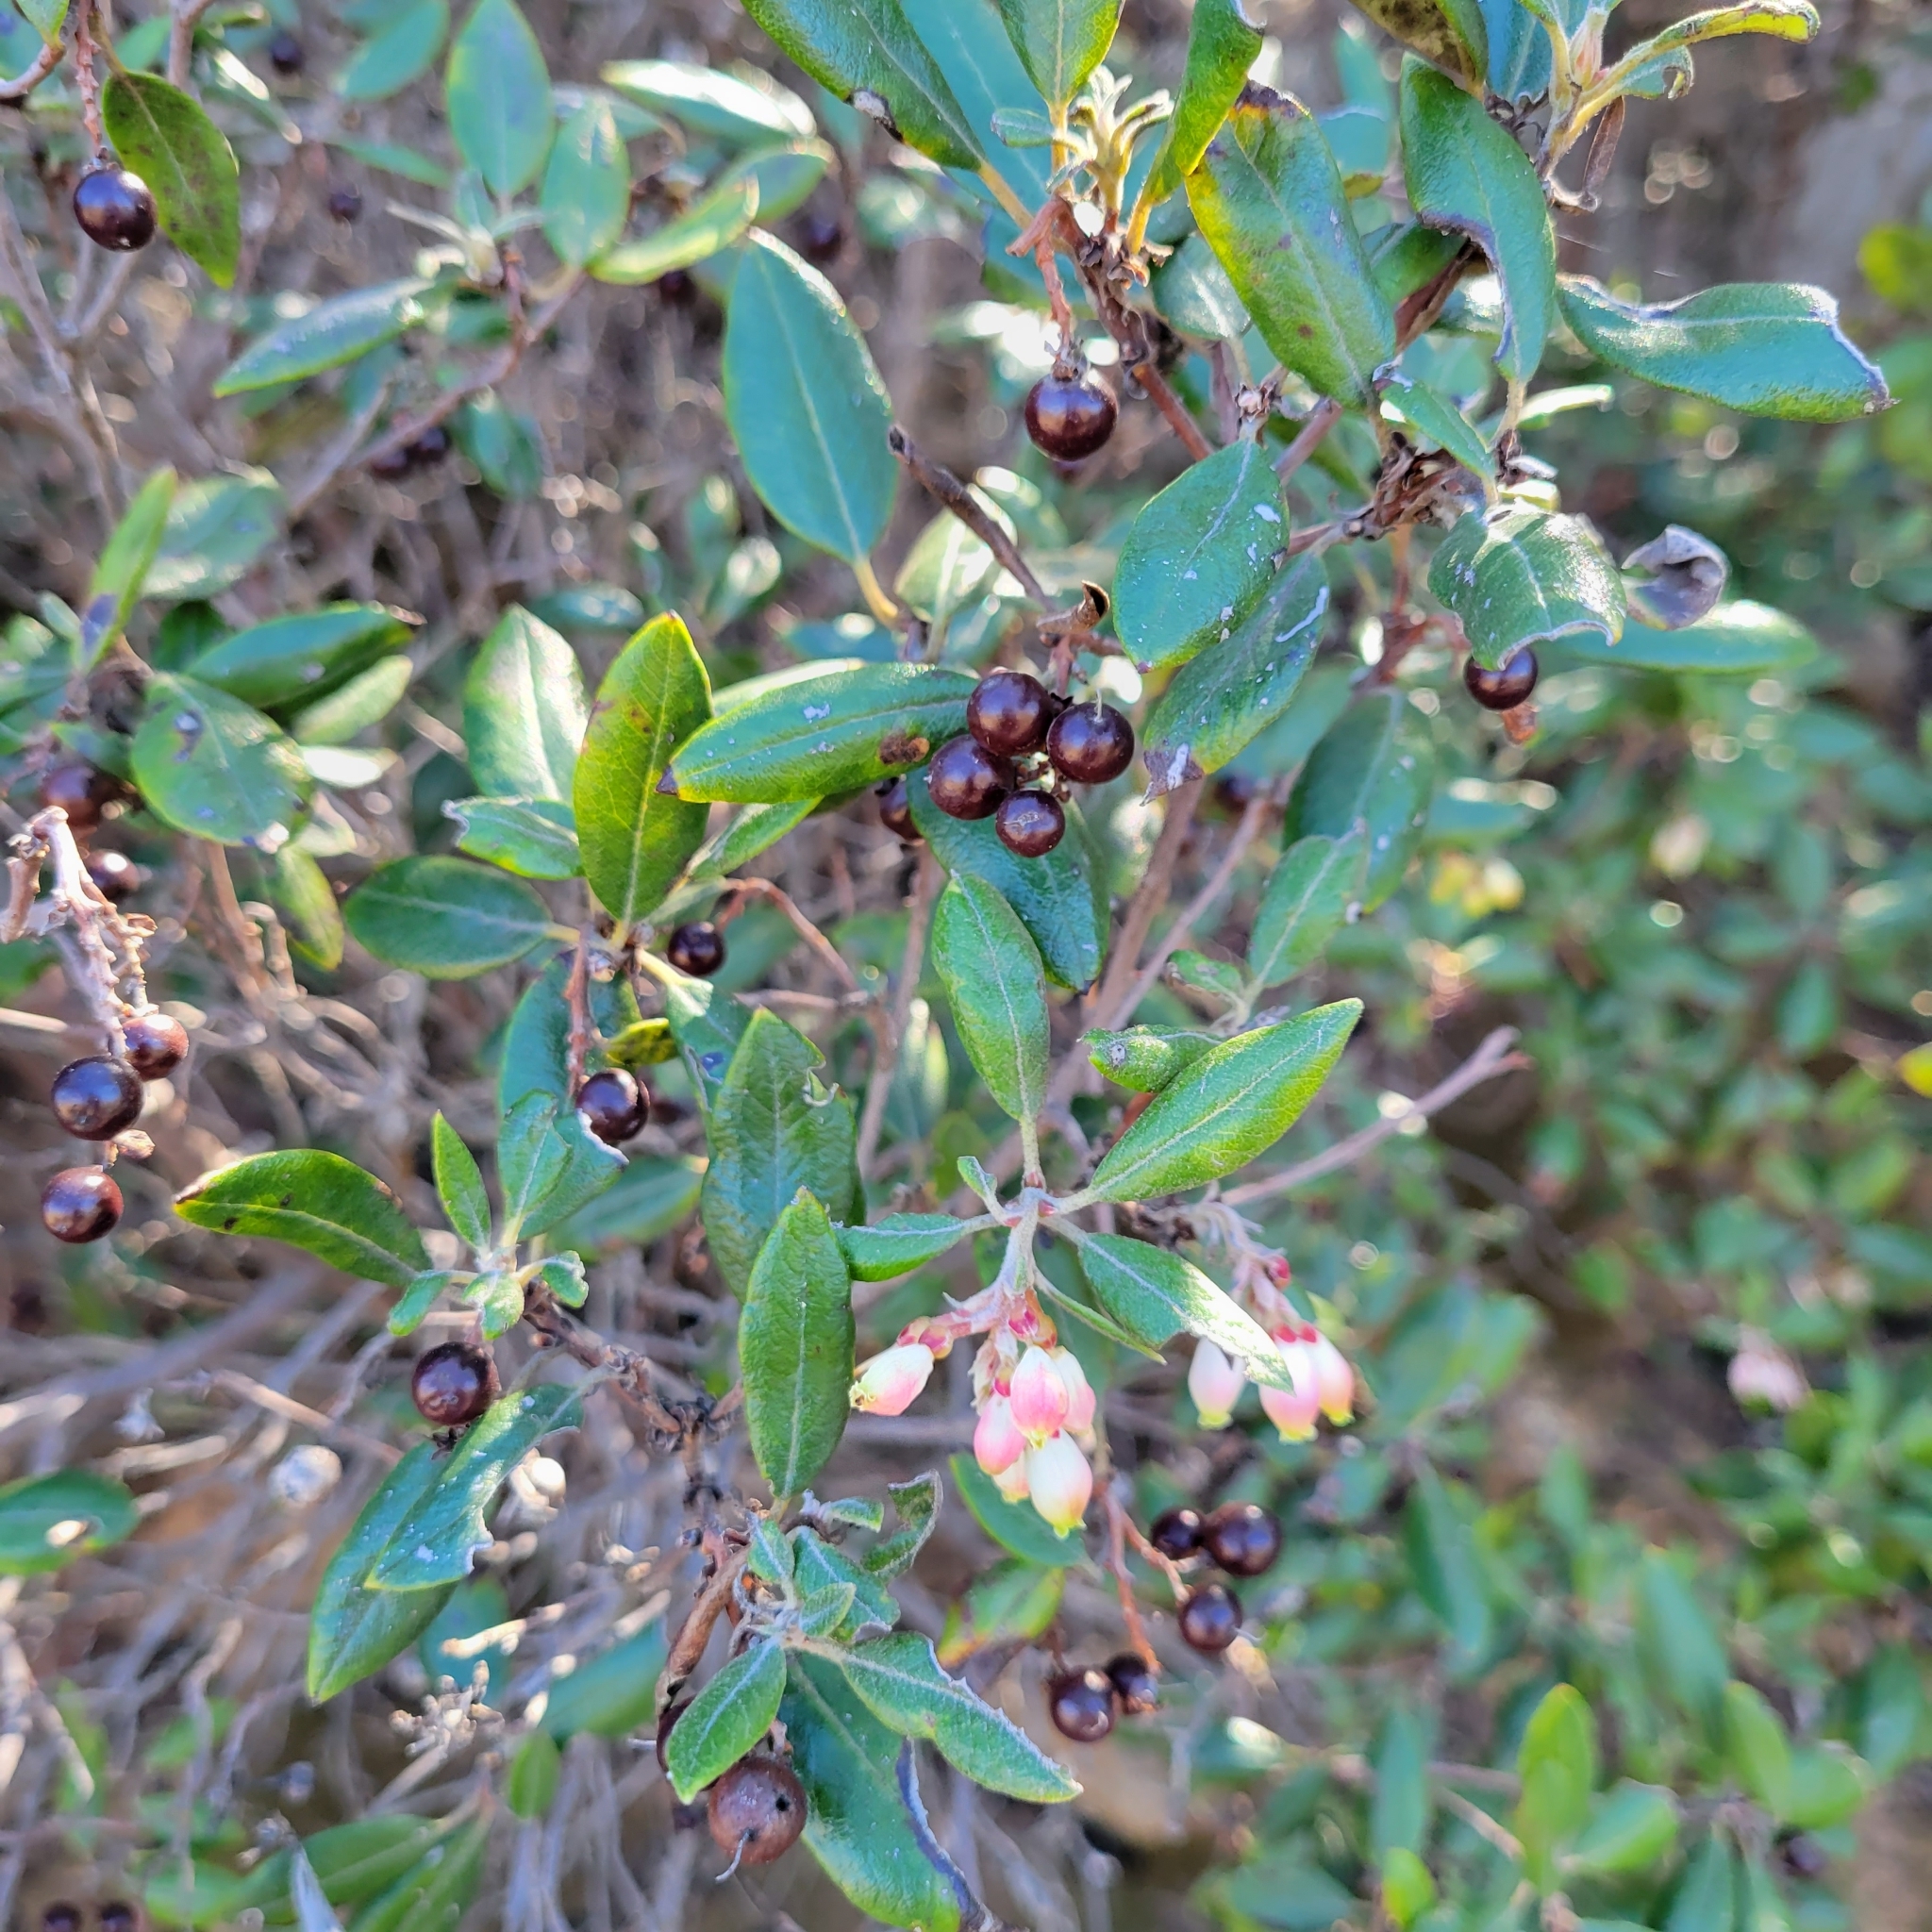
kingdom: Plantae
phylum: Tracheophyta
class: Magnoliopsida
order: Ericales
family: Ericaceae
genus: Arctostaphylos
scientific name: Arctostaphylos bicolor
